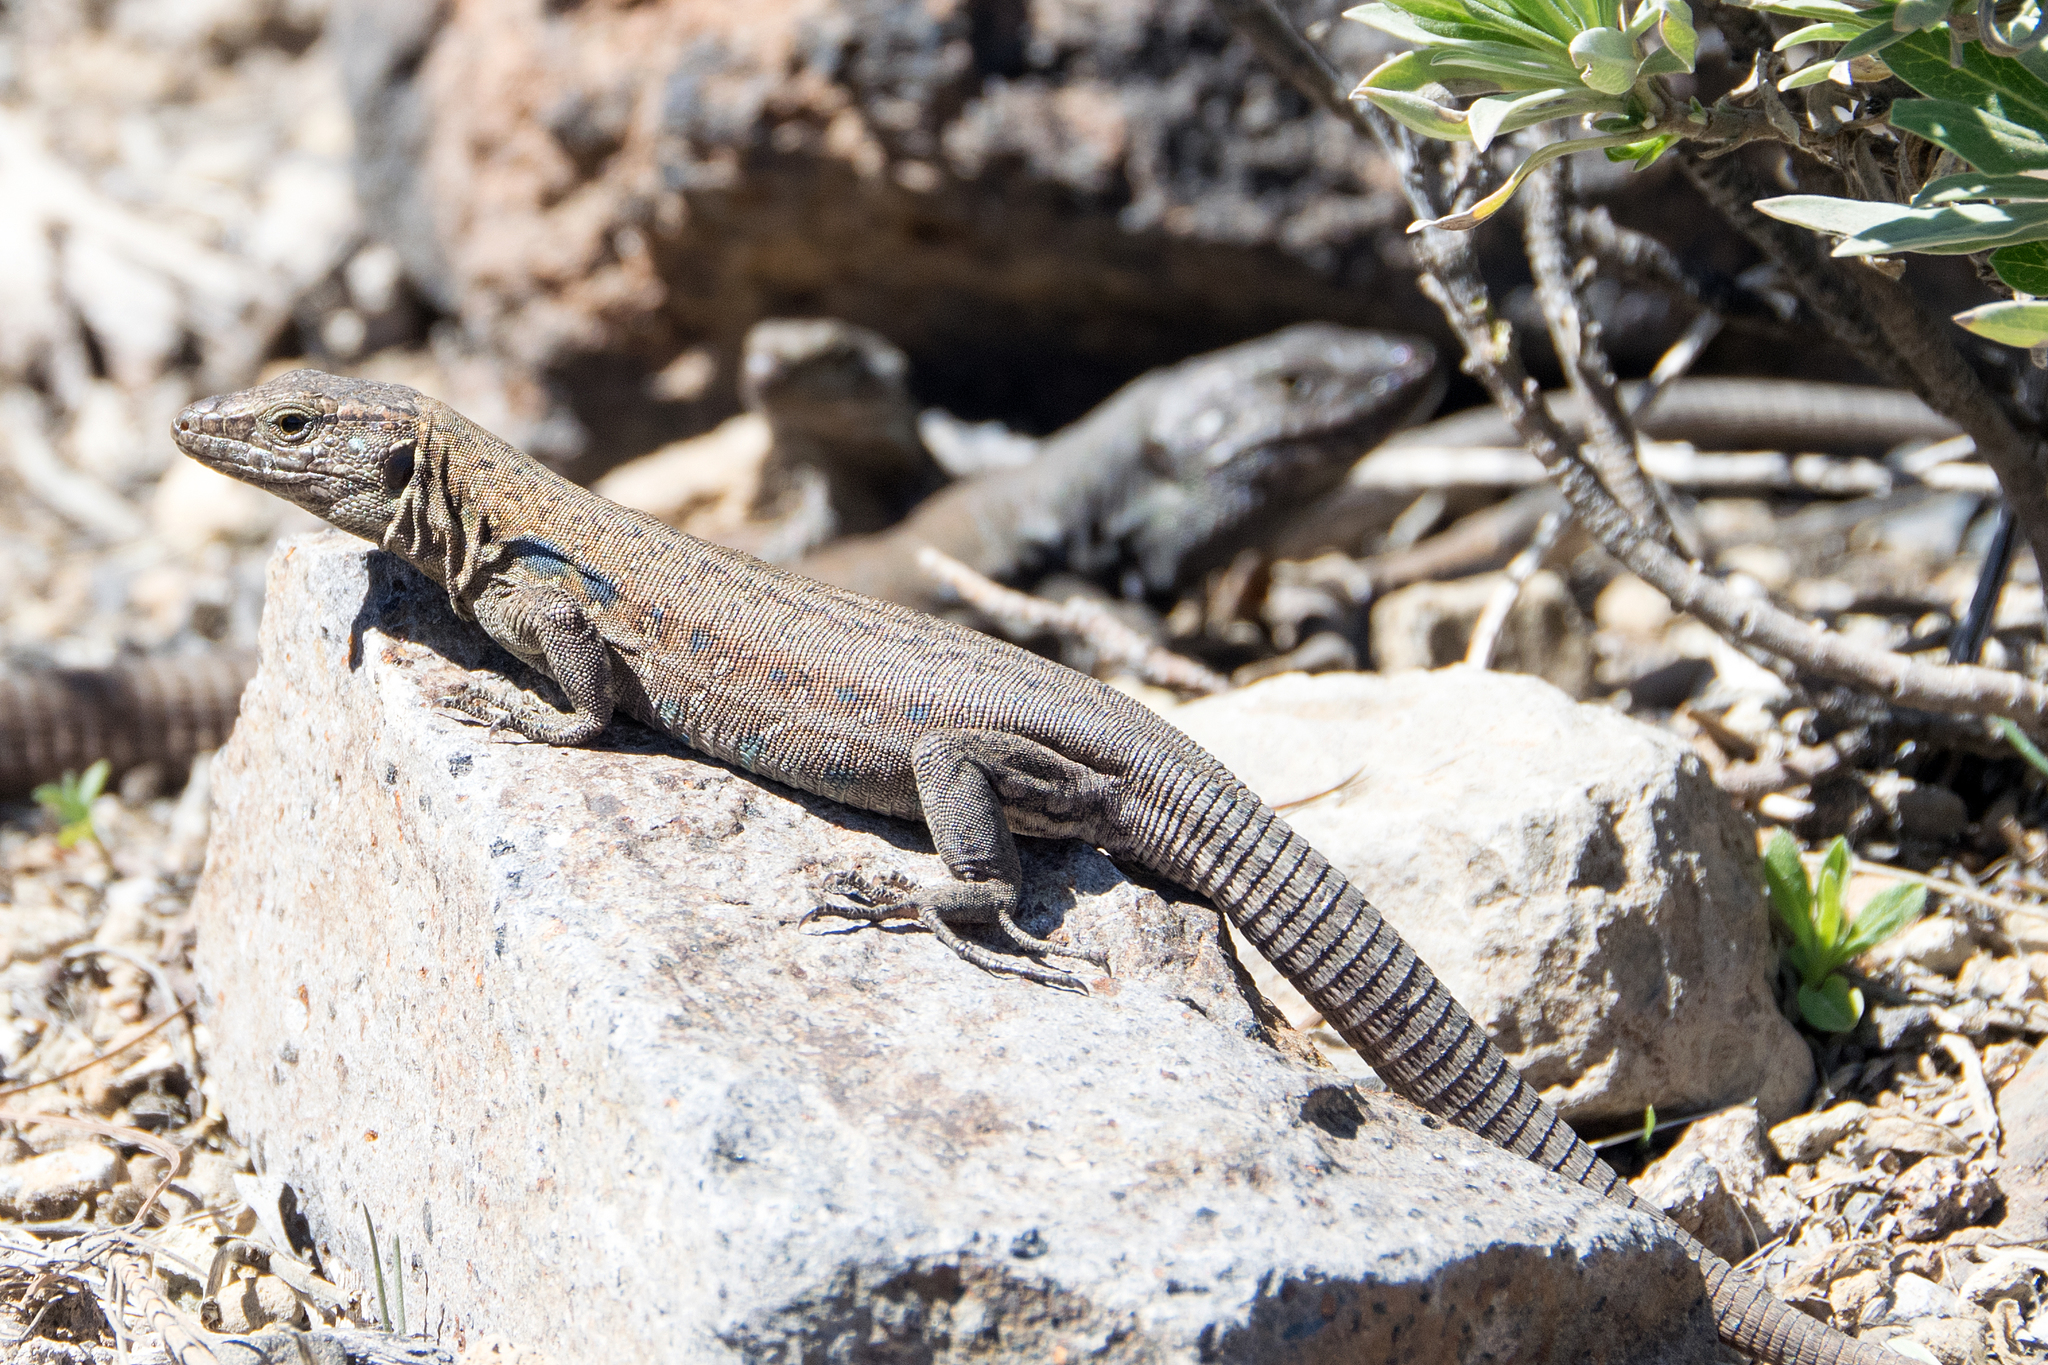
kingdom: Animalia
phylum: Chordata
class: Squamata
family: Lacertidae
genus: Gallotia
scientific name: Gallotia galloti
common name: Gallot's lizard
